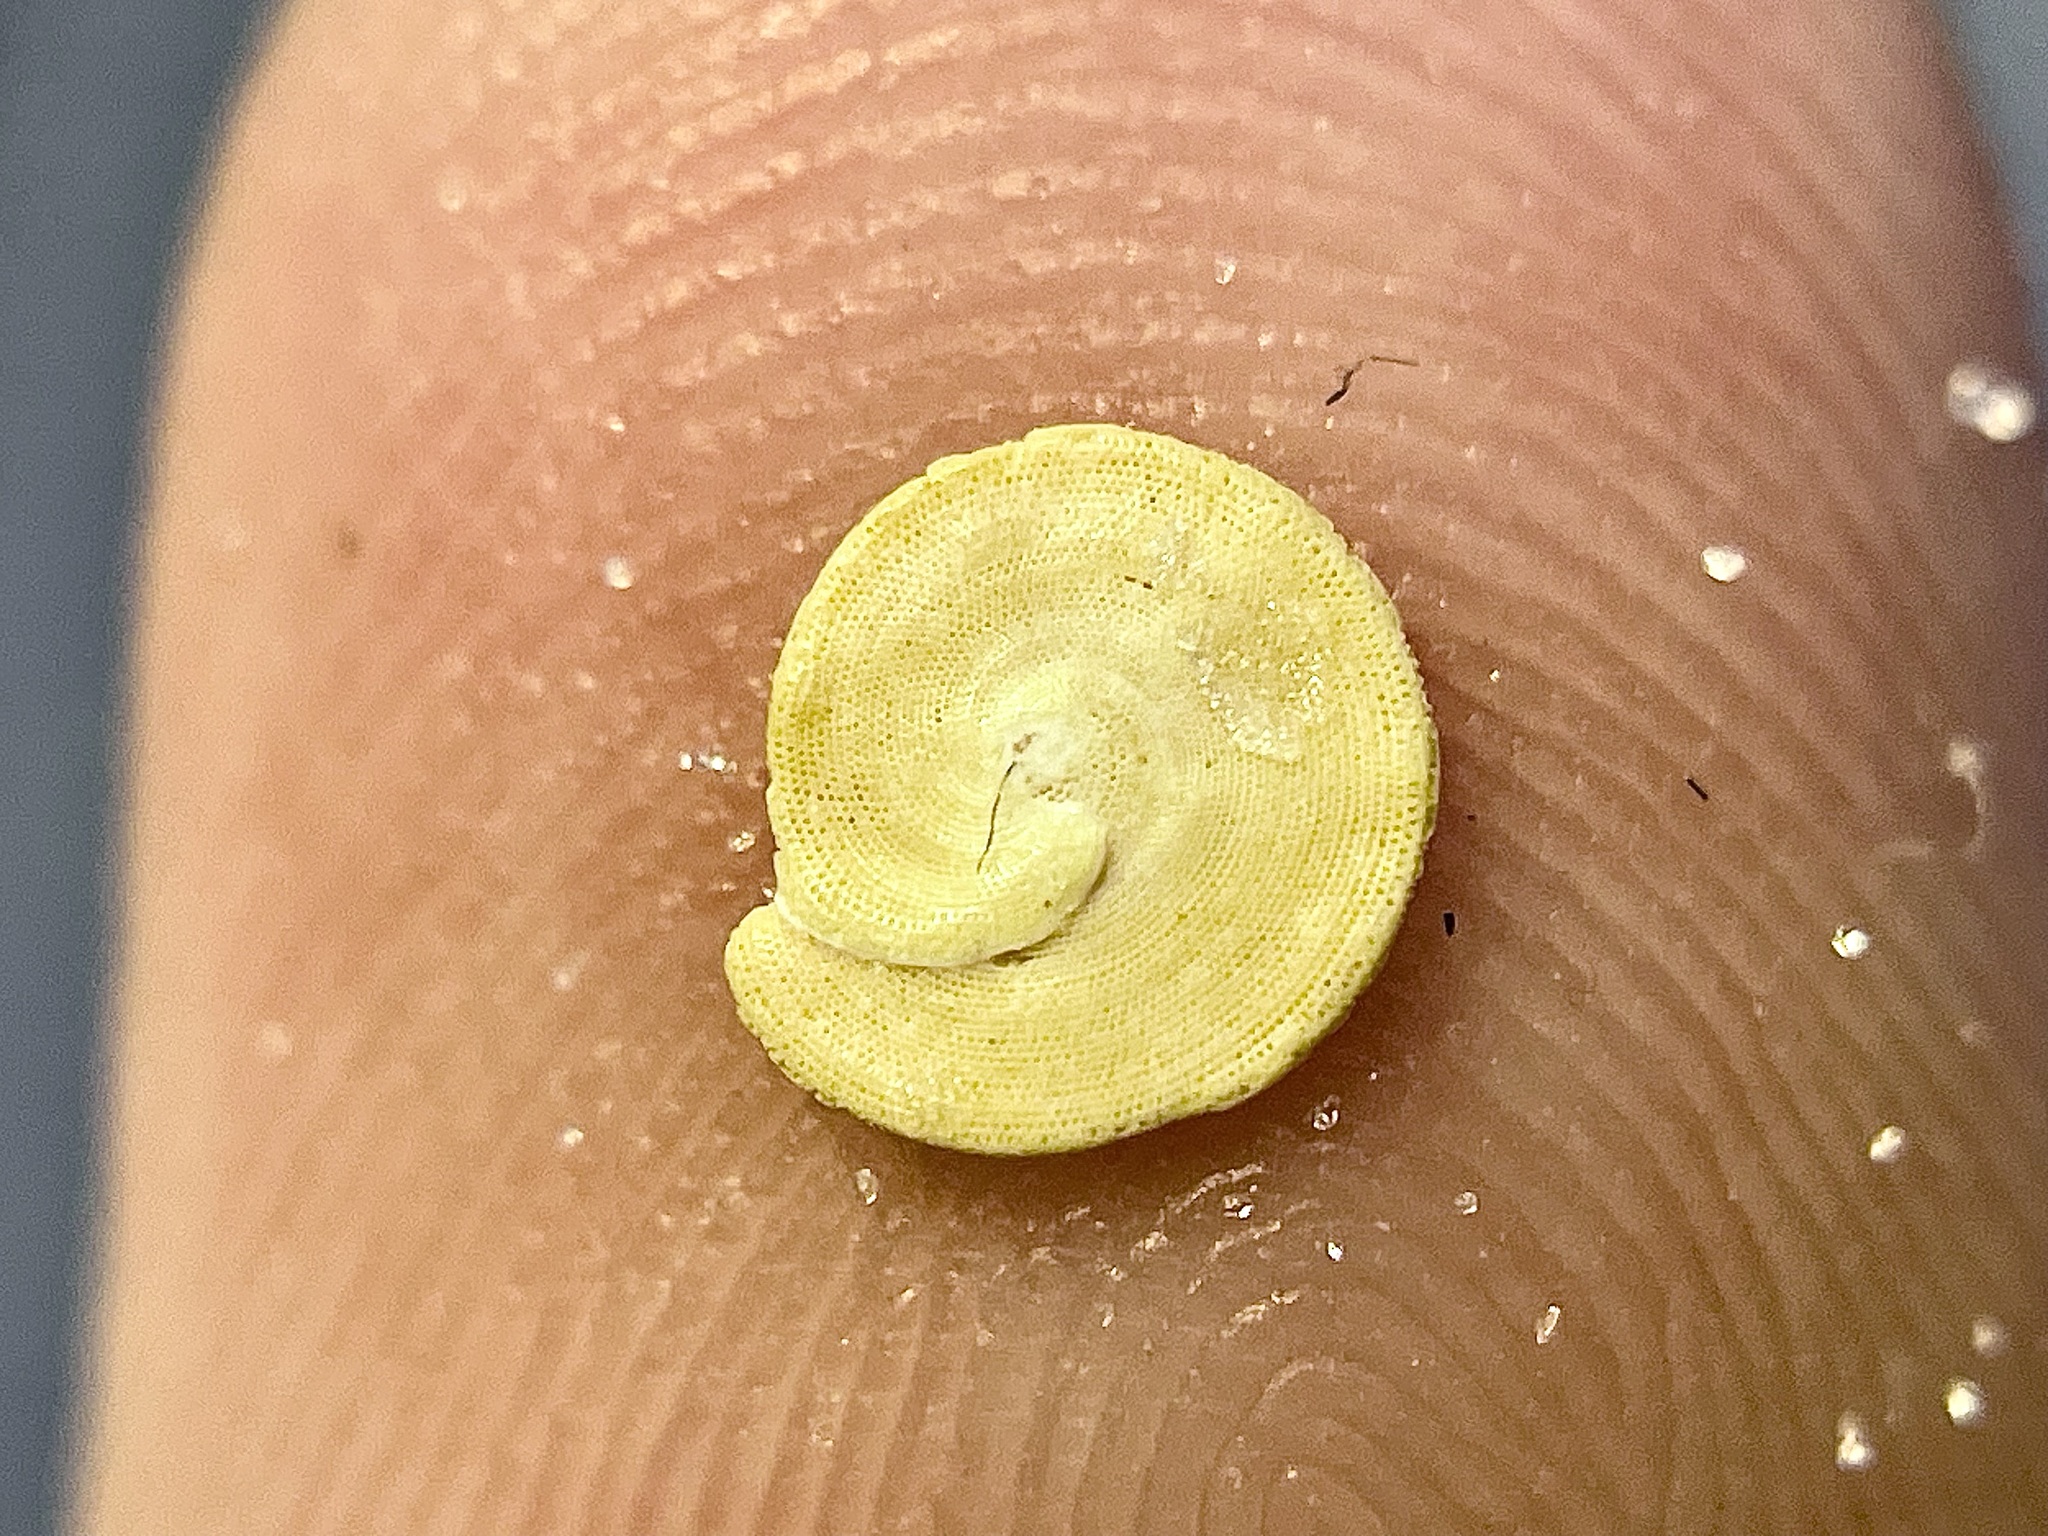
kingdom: Chromista
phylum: Foraminifera
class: Tubothalamea
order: Miliolida
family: Soritidae
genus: Archaias
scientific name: Archaias angulatus
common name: Turtle grass foram
